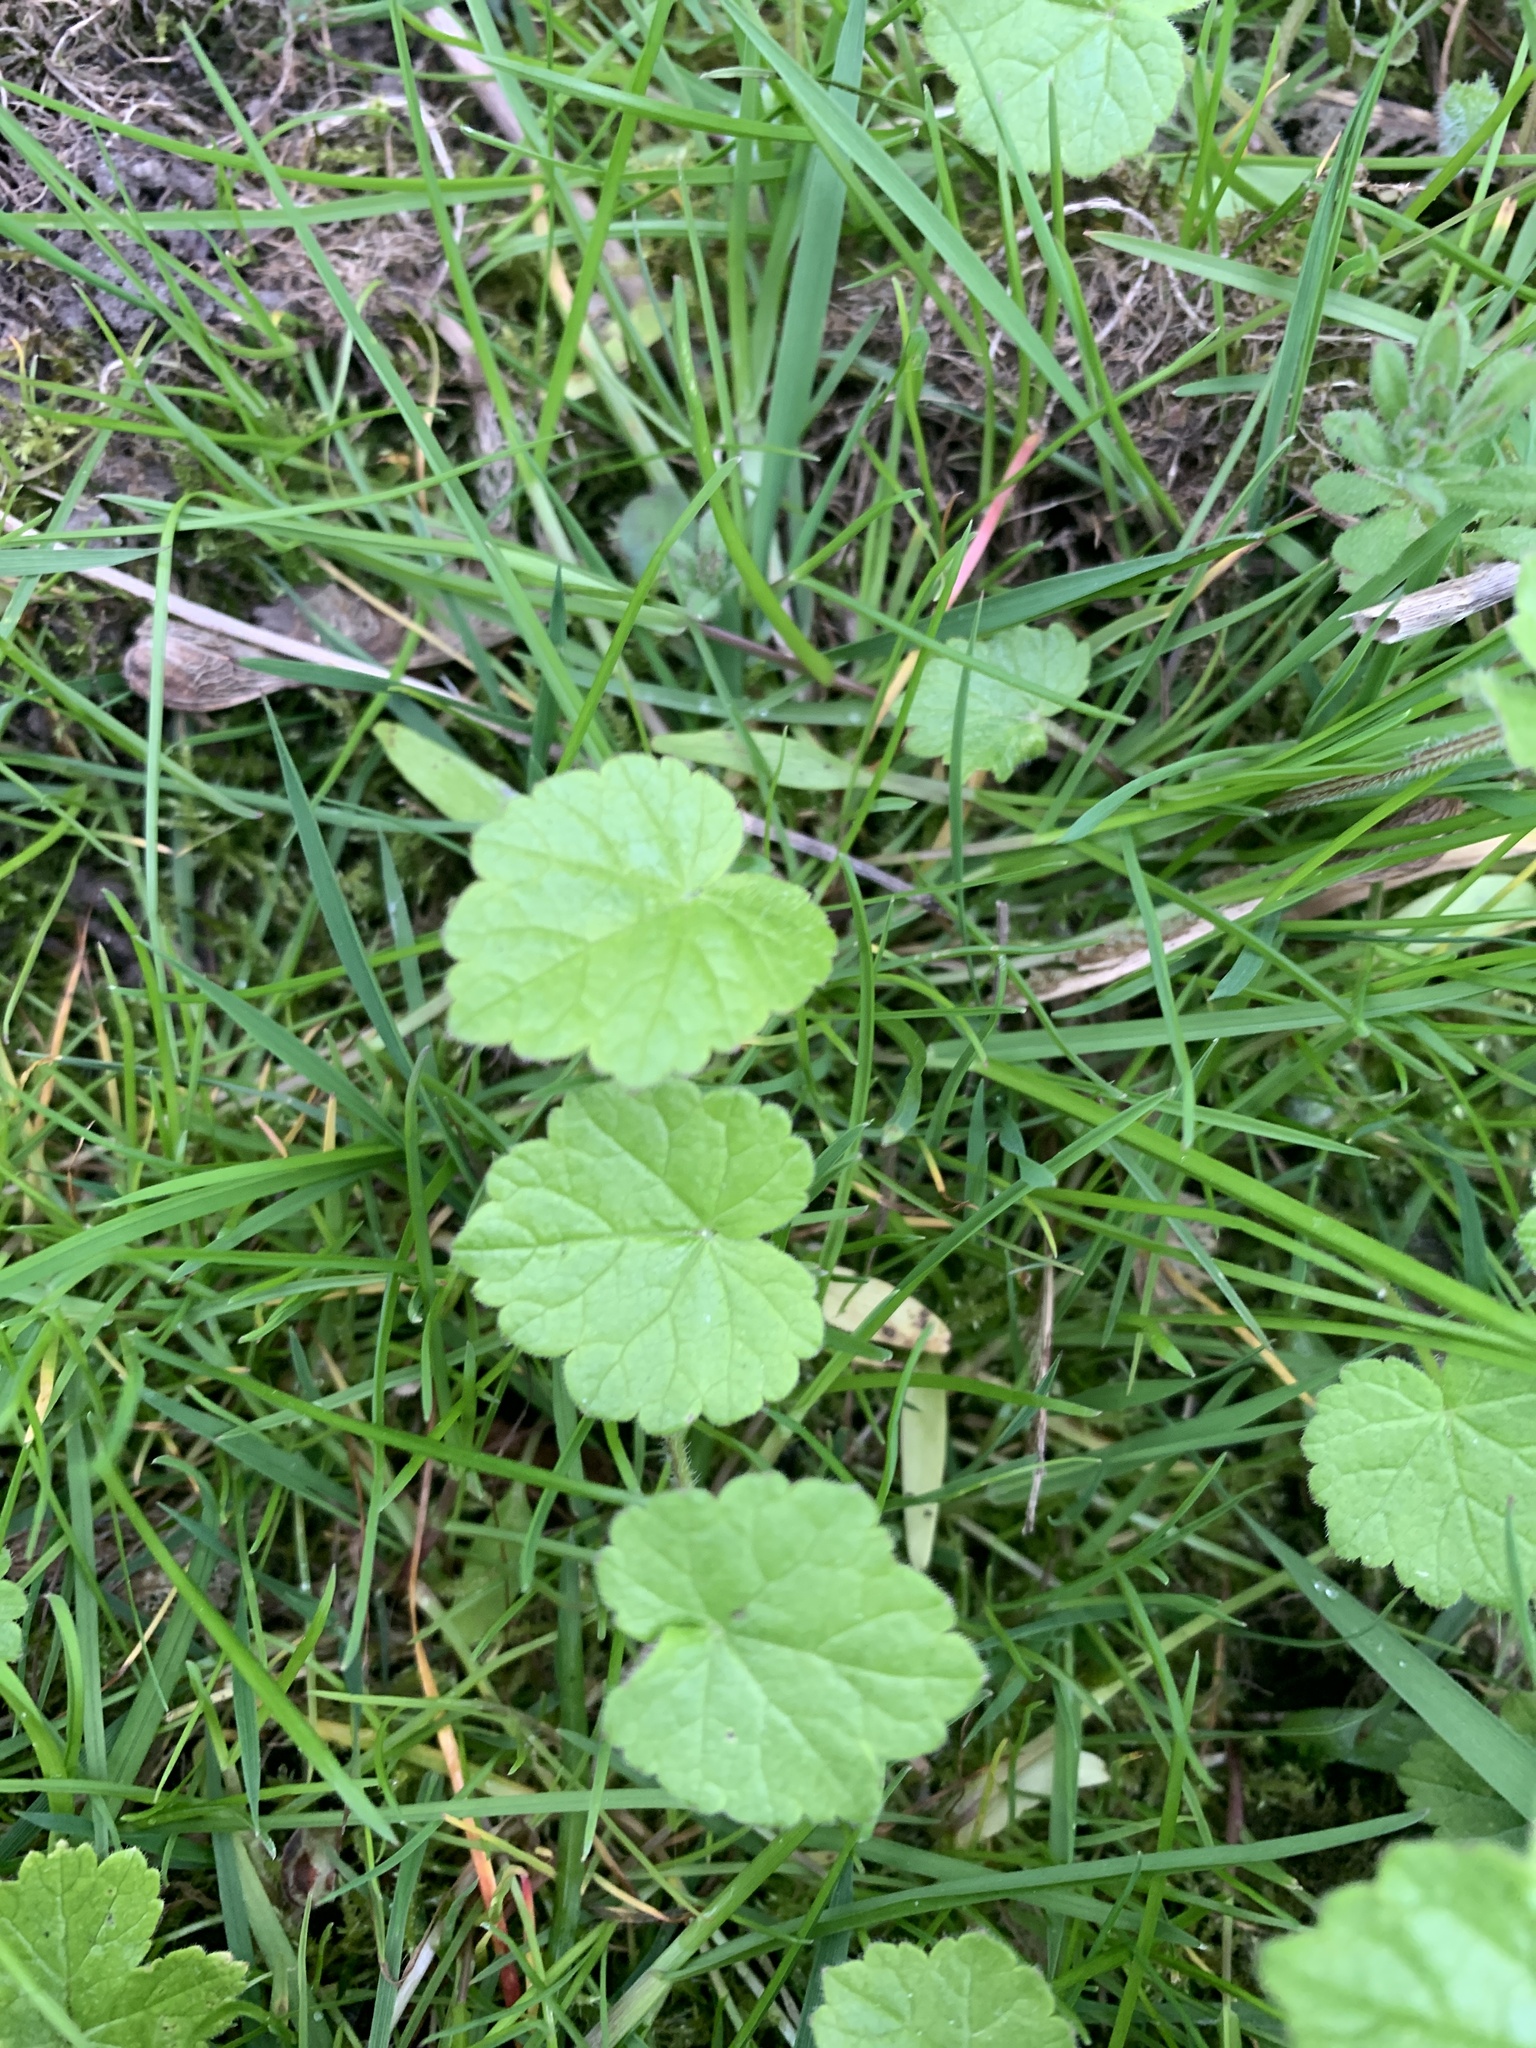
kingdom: Plantae
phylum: Tracheophyta
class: Magnoliopsida
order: Lamiales
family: Lamiaceae
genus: Glechoma
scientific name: Glechoma hederacea
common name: Ground ivy
